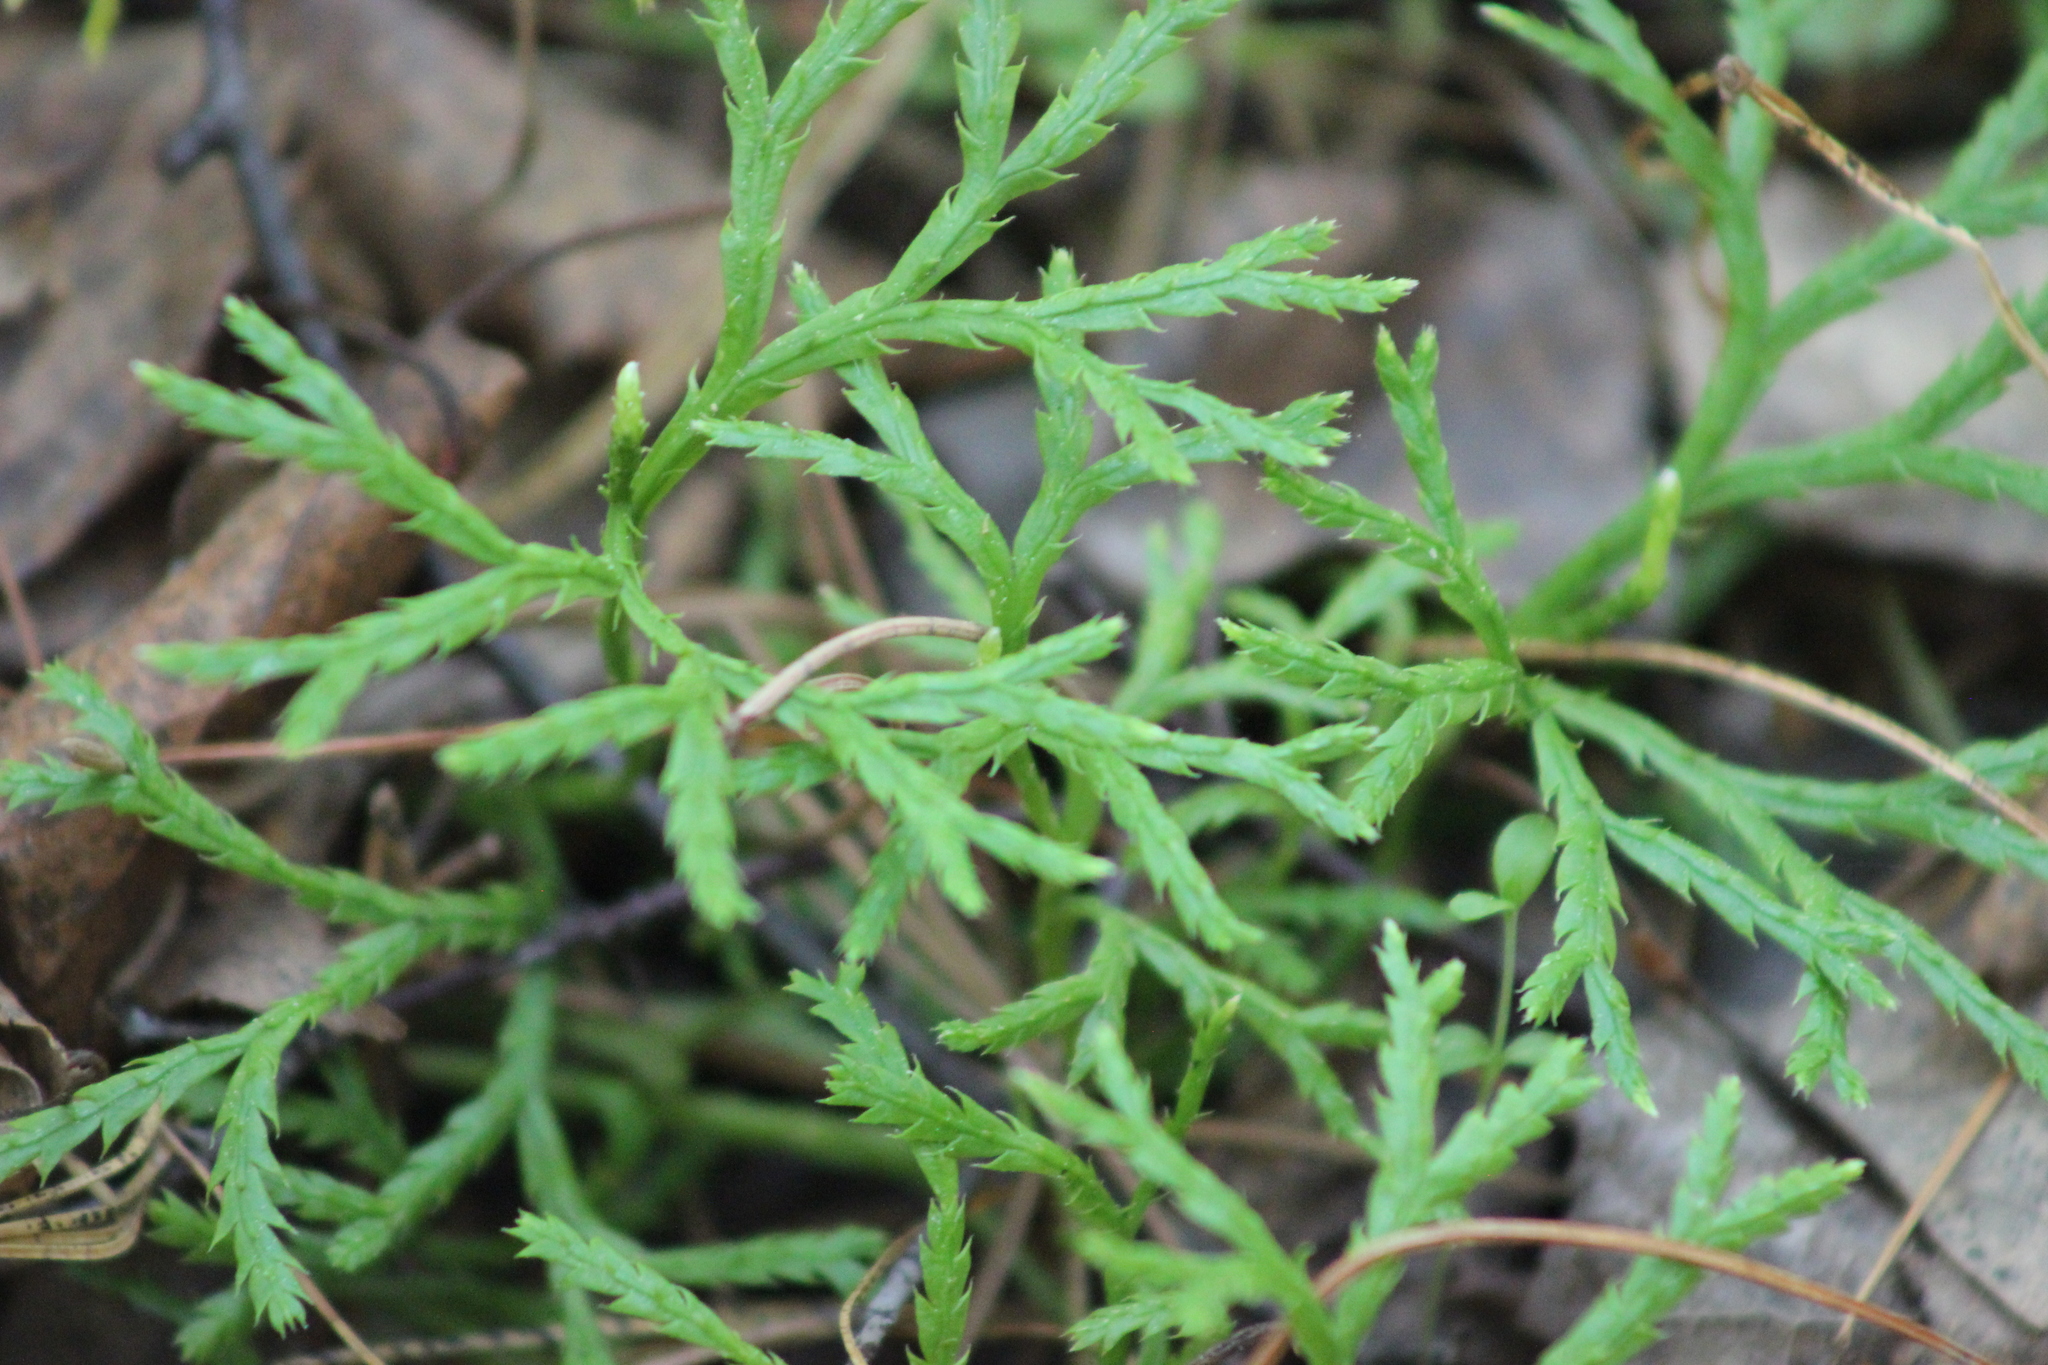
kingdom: Plantae
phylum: Tracheophyta
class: Lycopodiopsida
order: Lycopodiales
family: Lycopodiaceae
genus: Diphasiastrum
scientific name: Diphasiastrum complanatum
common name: Northern running-pine
